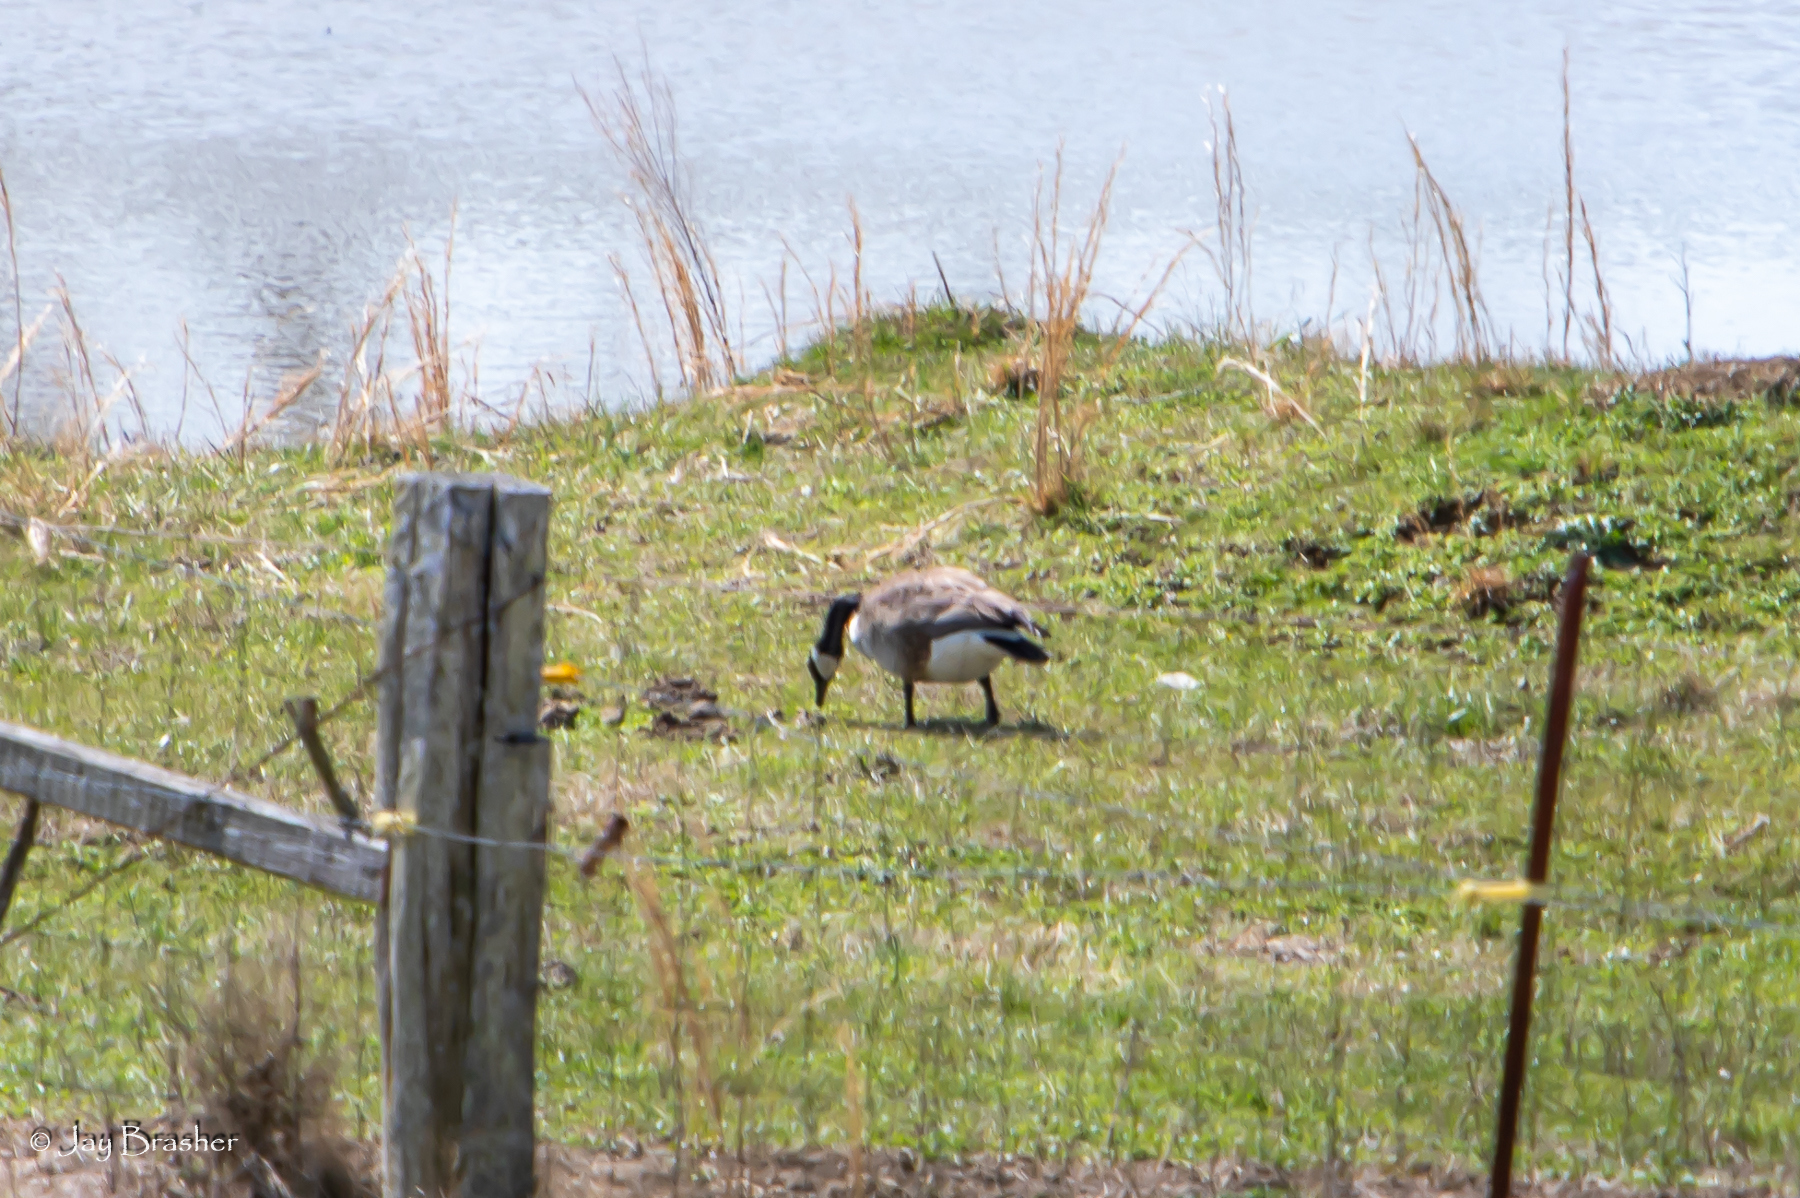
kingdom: Animalia
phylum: Chordata
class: Aves
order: Anseriformes
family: Anatidae
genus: Branta
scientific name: Branta canadensis
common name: Canada goose
